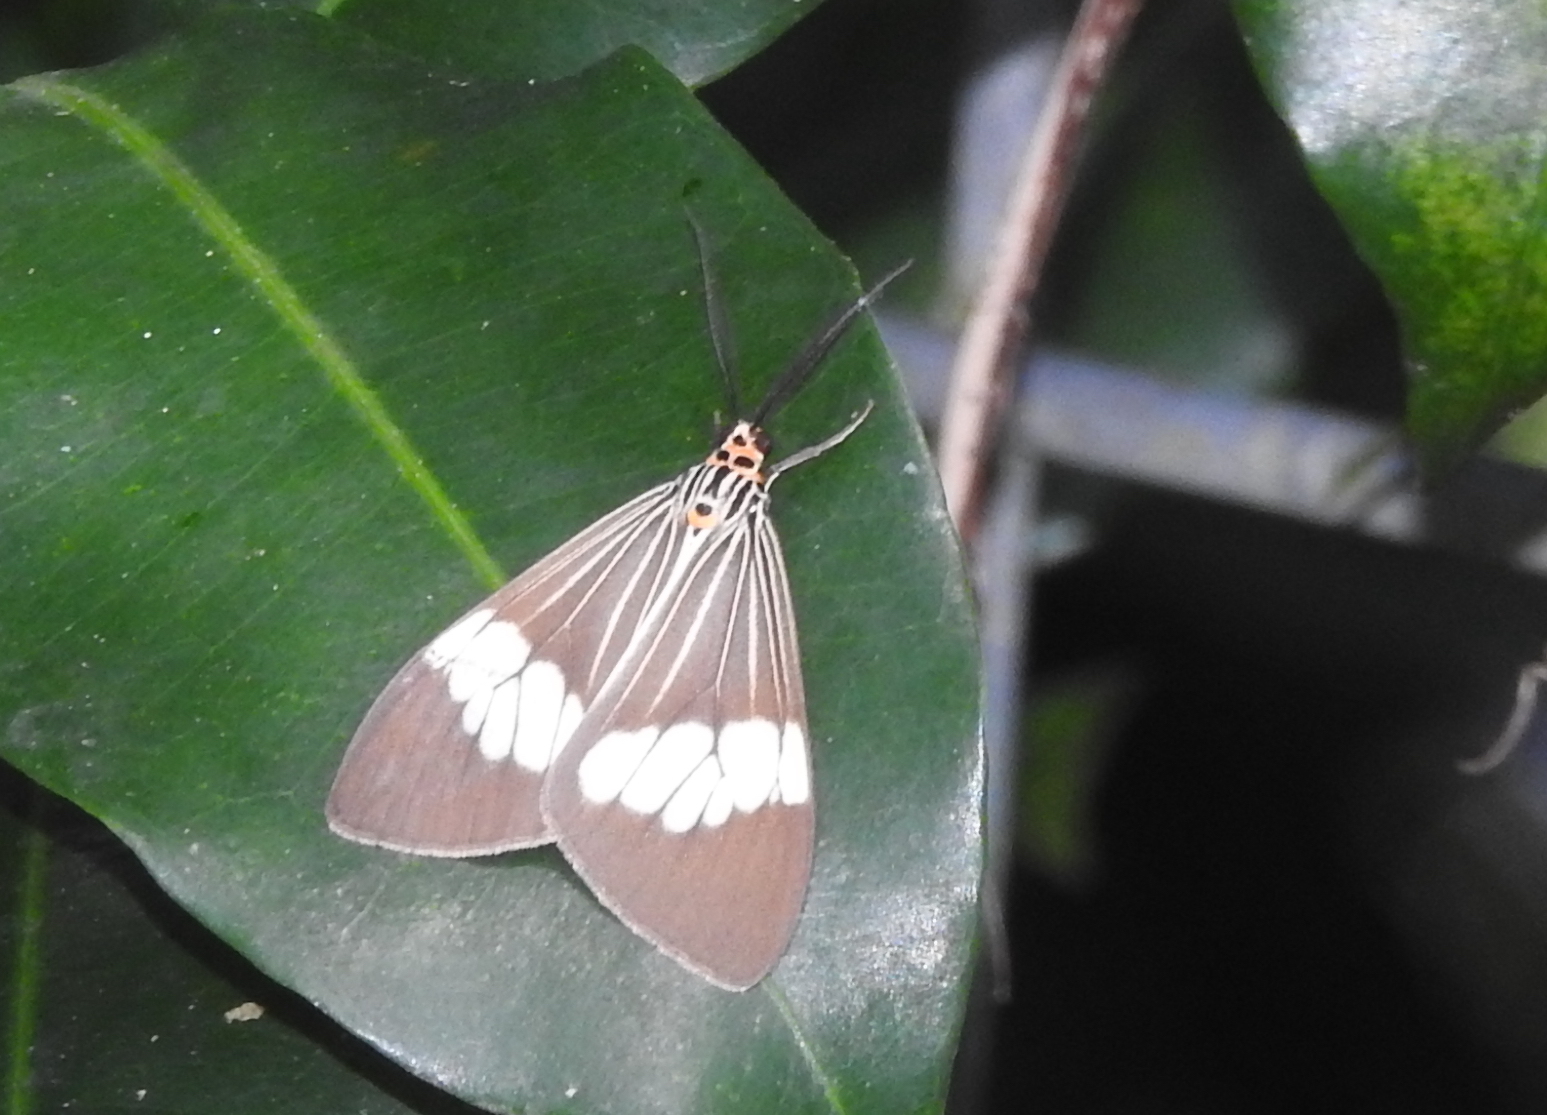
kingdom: Animalia
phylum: Arthropoda
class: Insecta
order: Lepidoptera
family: Erebidae
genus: Nyctemera
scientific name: Nyctemera baulus
